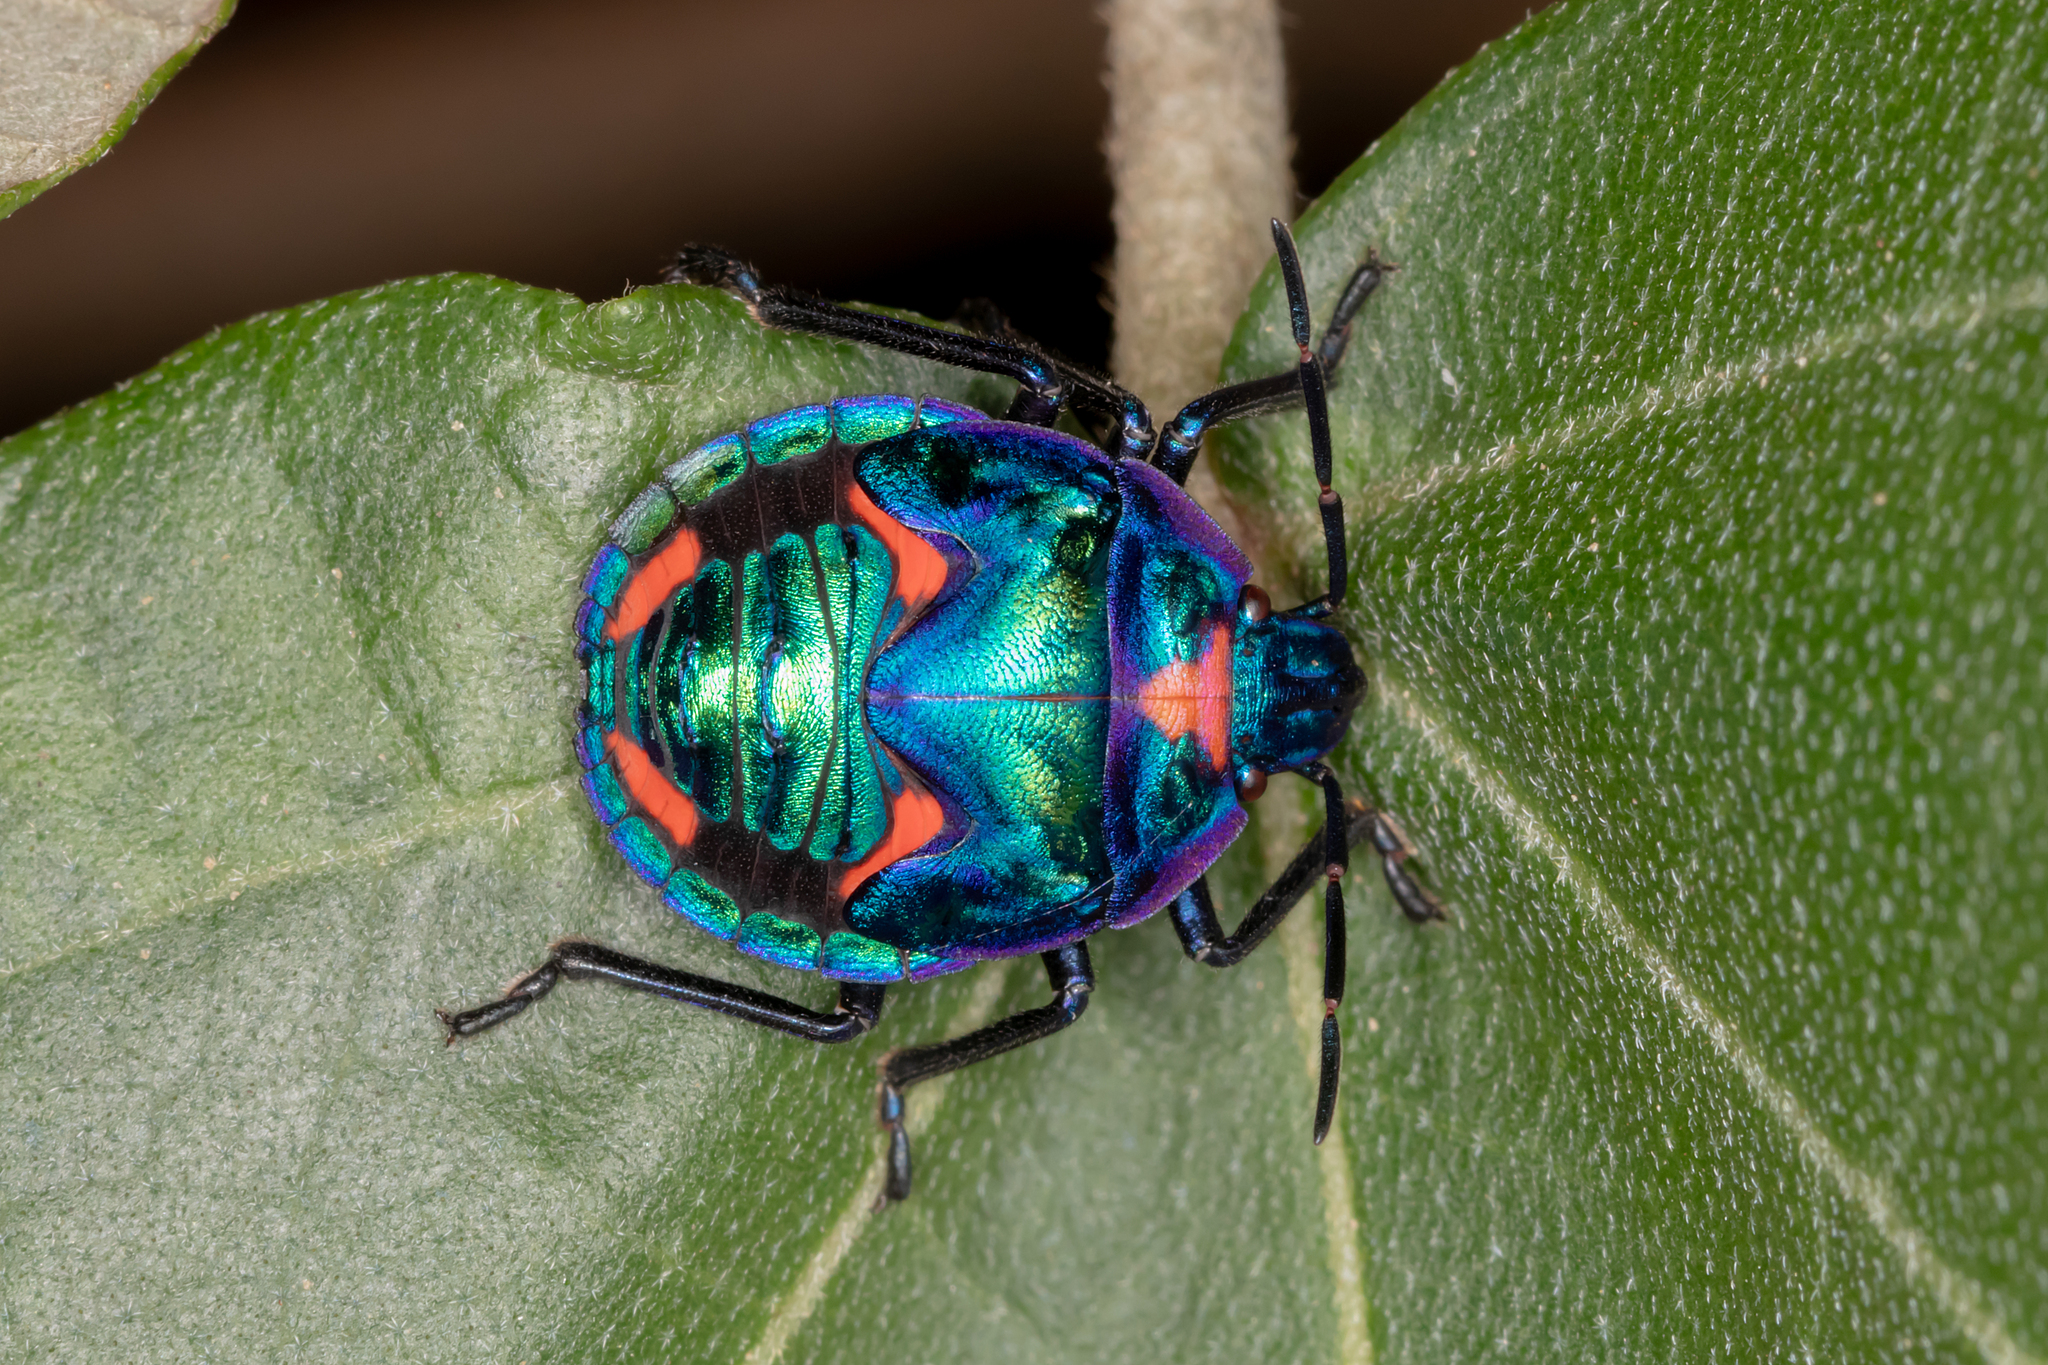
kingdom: Animalia
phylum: Arthropoda
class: Insecta
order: Hemiptera
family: Scutelleridae
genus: Tectocoris
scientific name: Tectocoris diophthalmus
